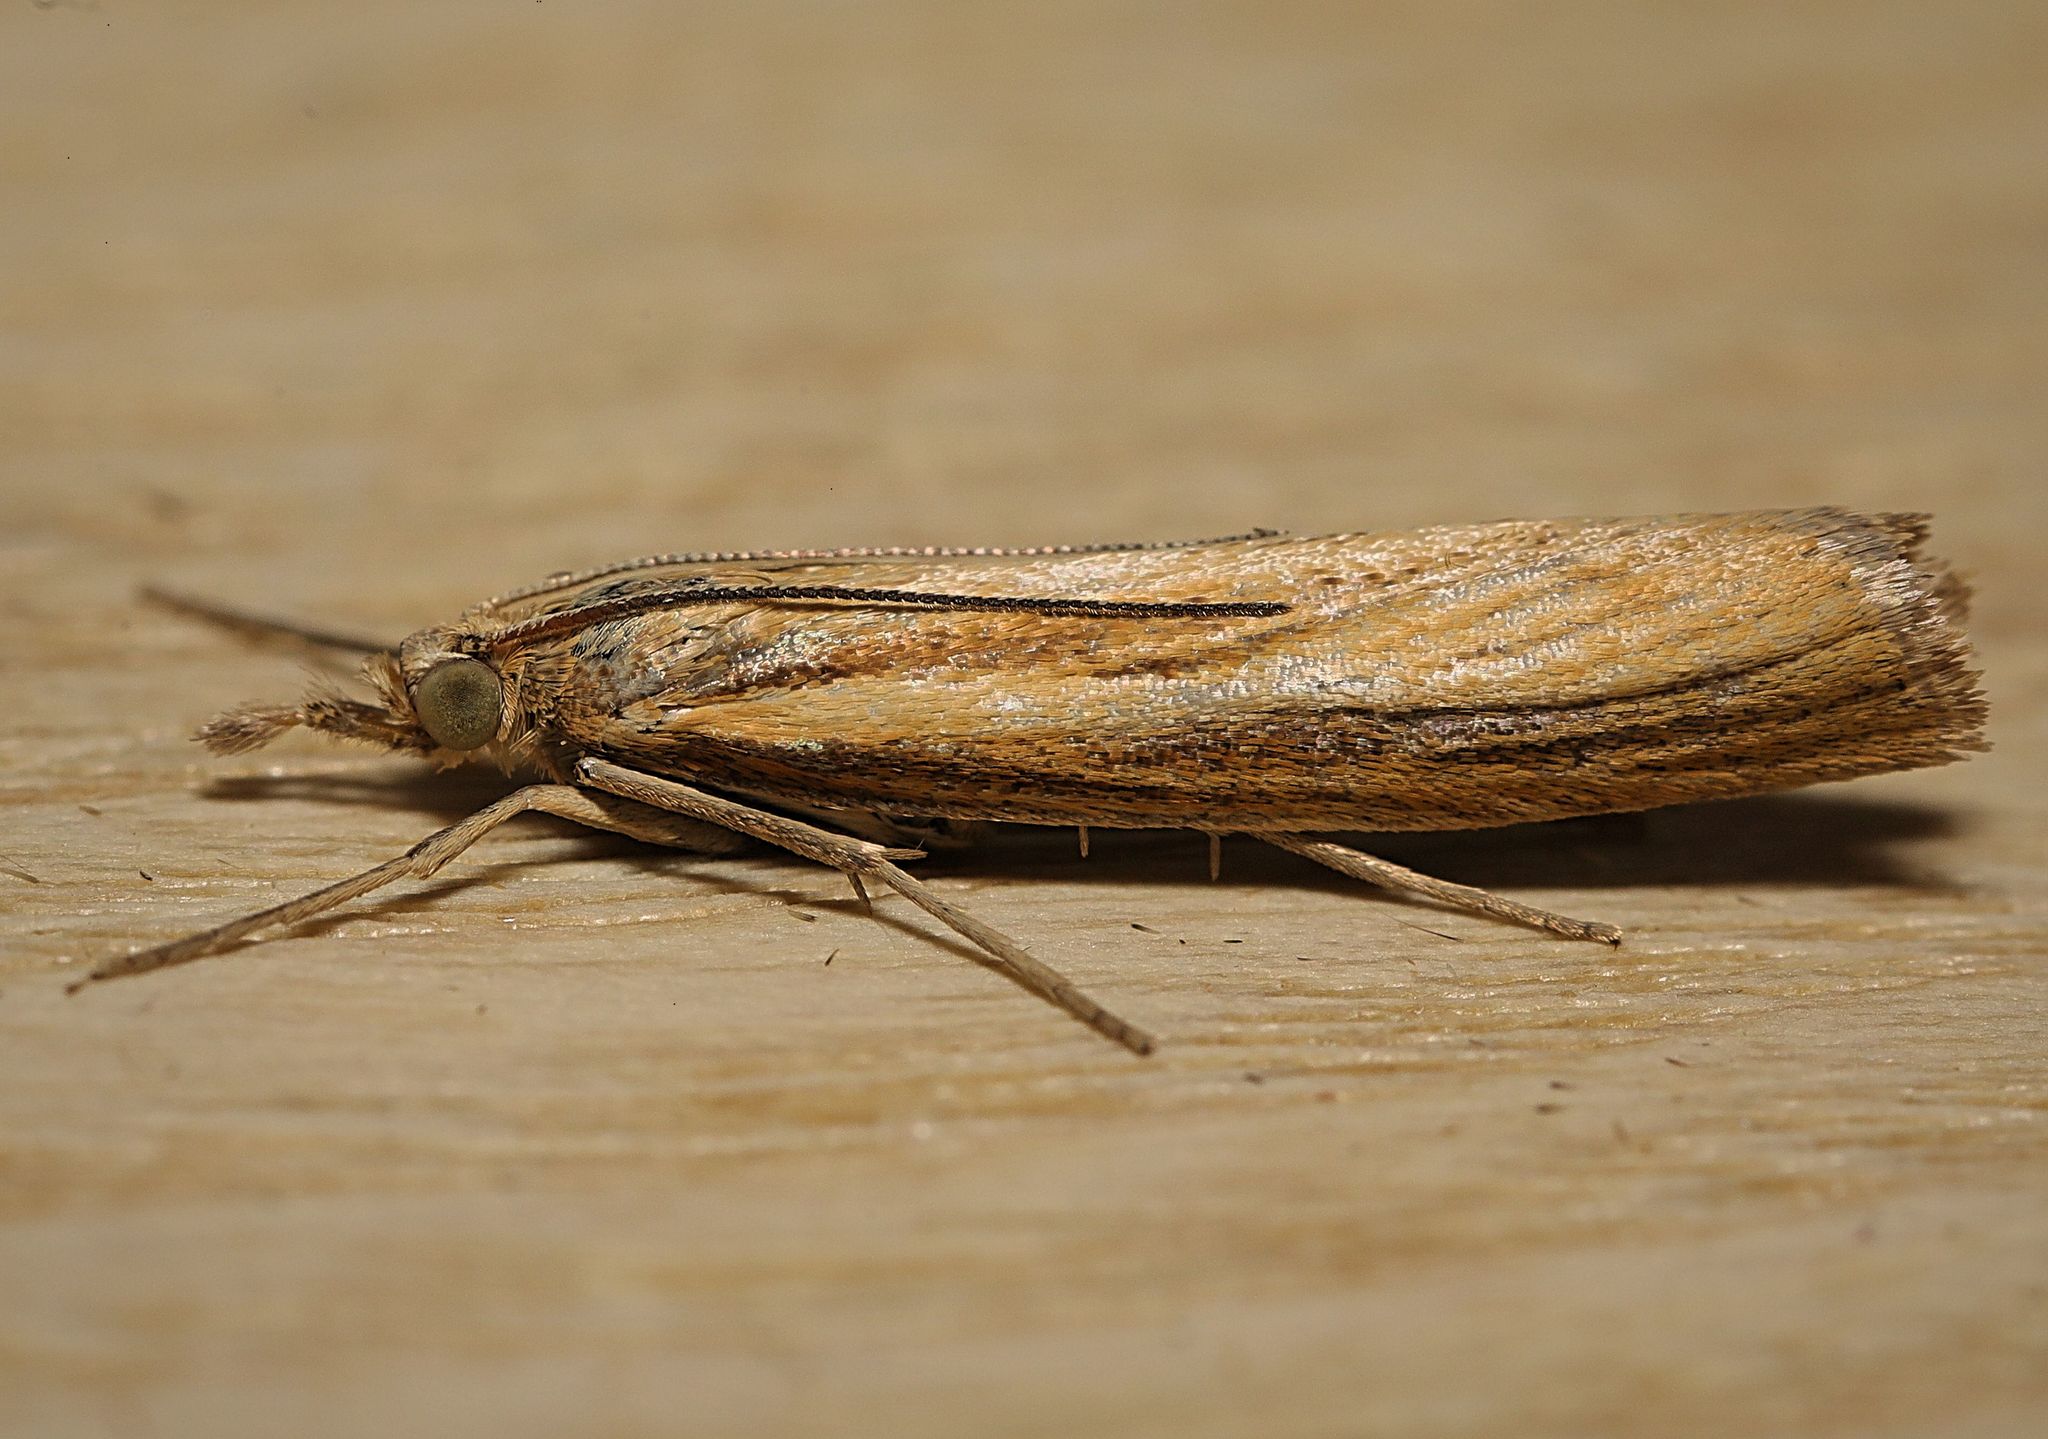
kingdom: Animalia
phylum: Arthropoda
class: Insecta
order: Lepidoptera
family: Crambidae
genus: Agriphila
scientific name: Agriphila tristellus
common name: Common grass-veneer
